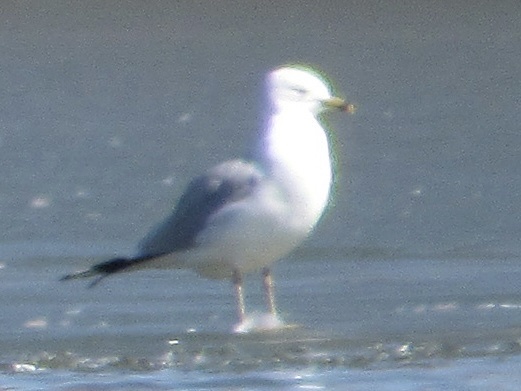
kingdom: Animalia
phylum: Chordata
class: Aves
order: Charadriiformes
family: Laridae
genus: Larus
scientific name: Larus delawarensis
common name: Ring-billed gull
